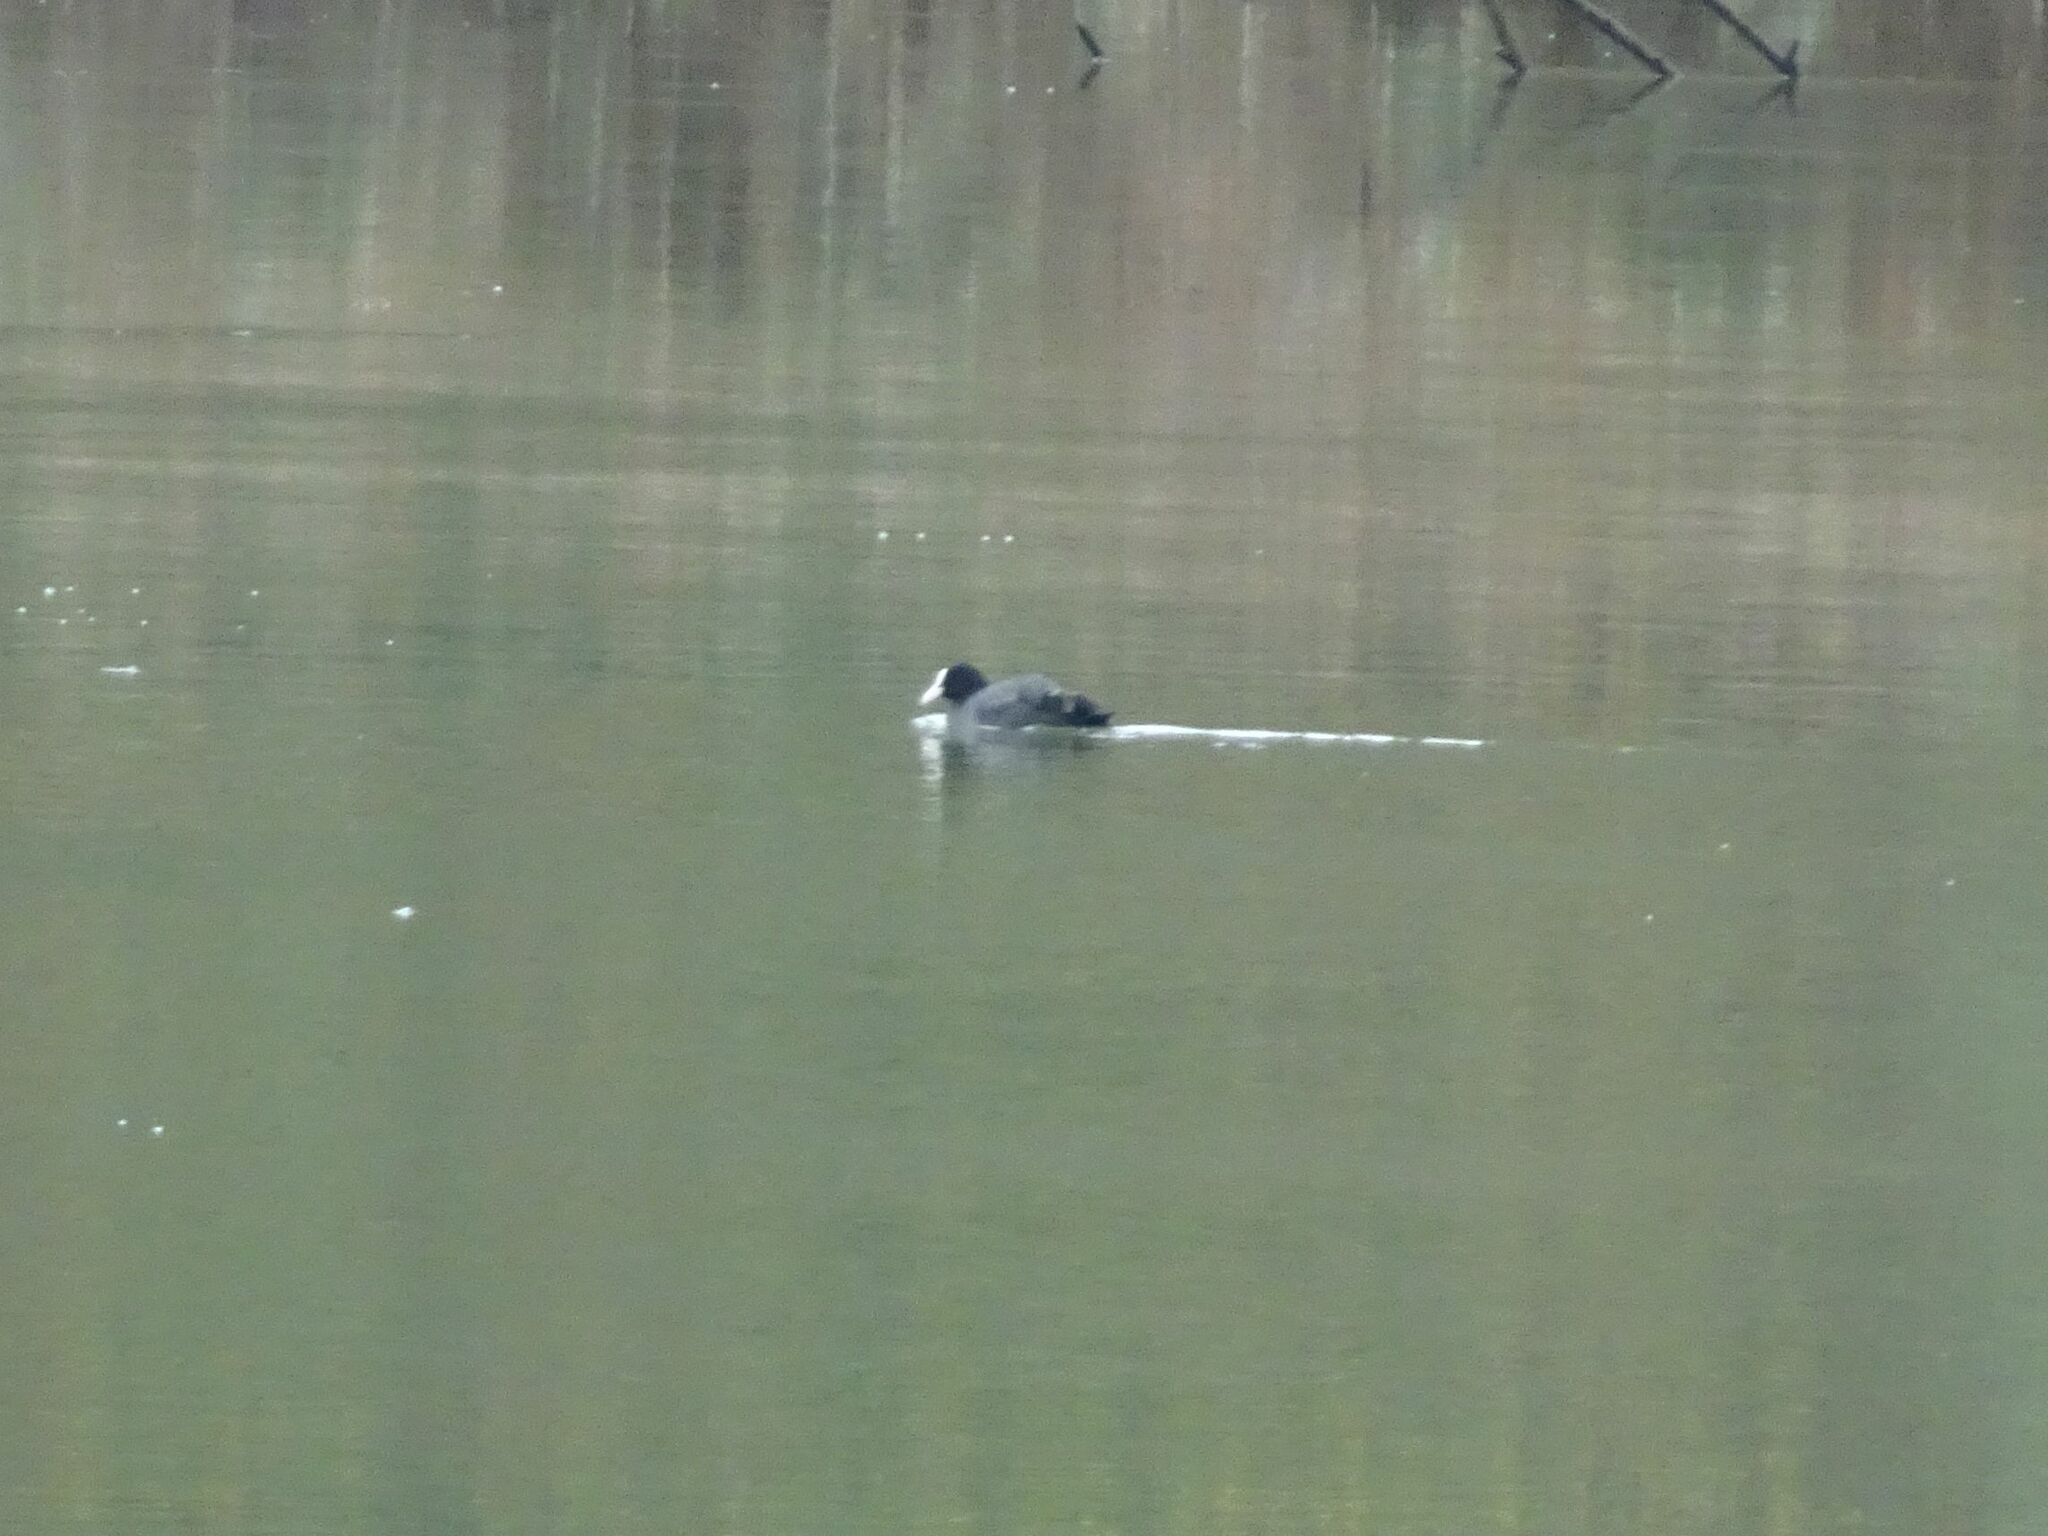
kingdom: Animalia
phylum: Chordata
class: Aves
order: Gruiformes
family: Rallidae
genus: Fulica
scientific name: Fulica atra
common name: Eurasian coot
